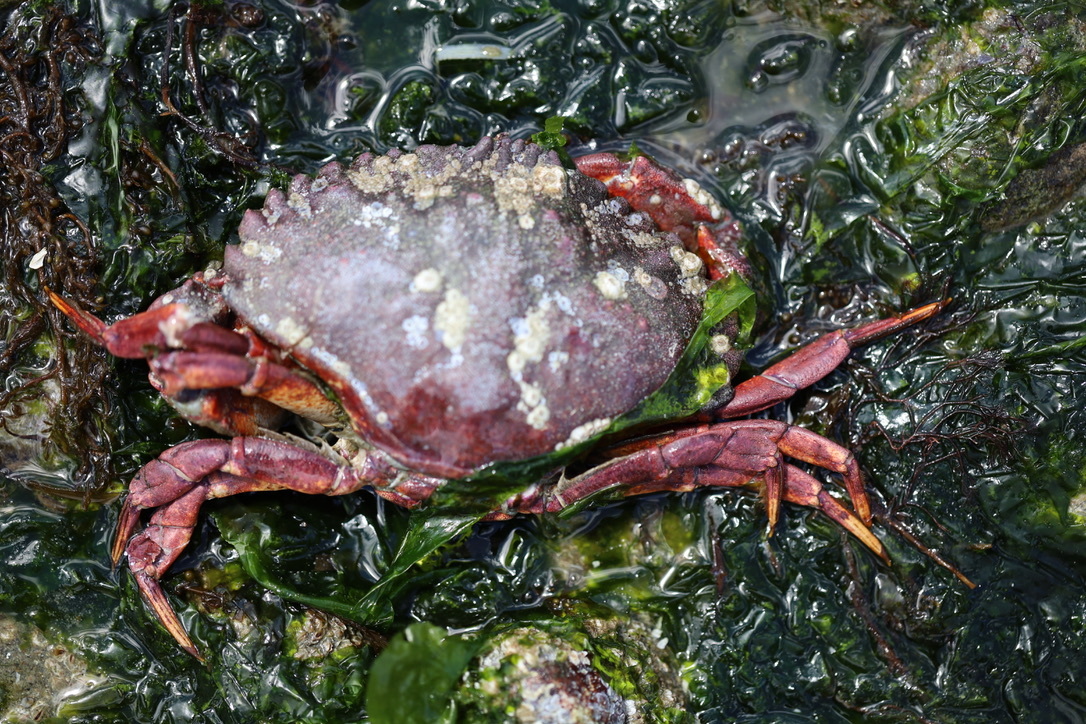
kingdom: Animalia
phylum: Arthropoda
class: Malacostraca
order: Decapoda
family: Cancridae
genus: Cancer
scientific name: Cancer productus
